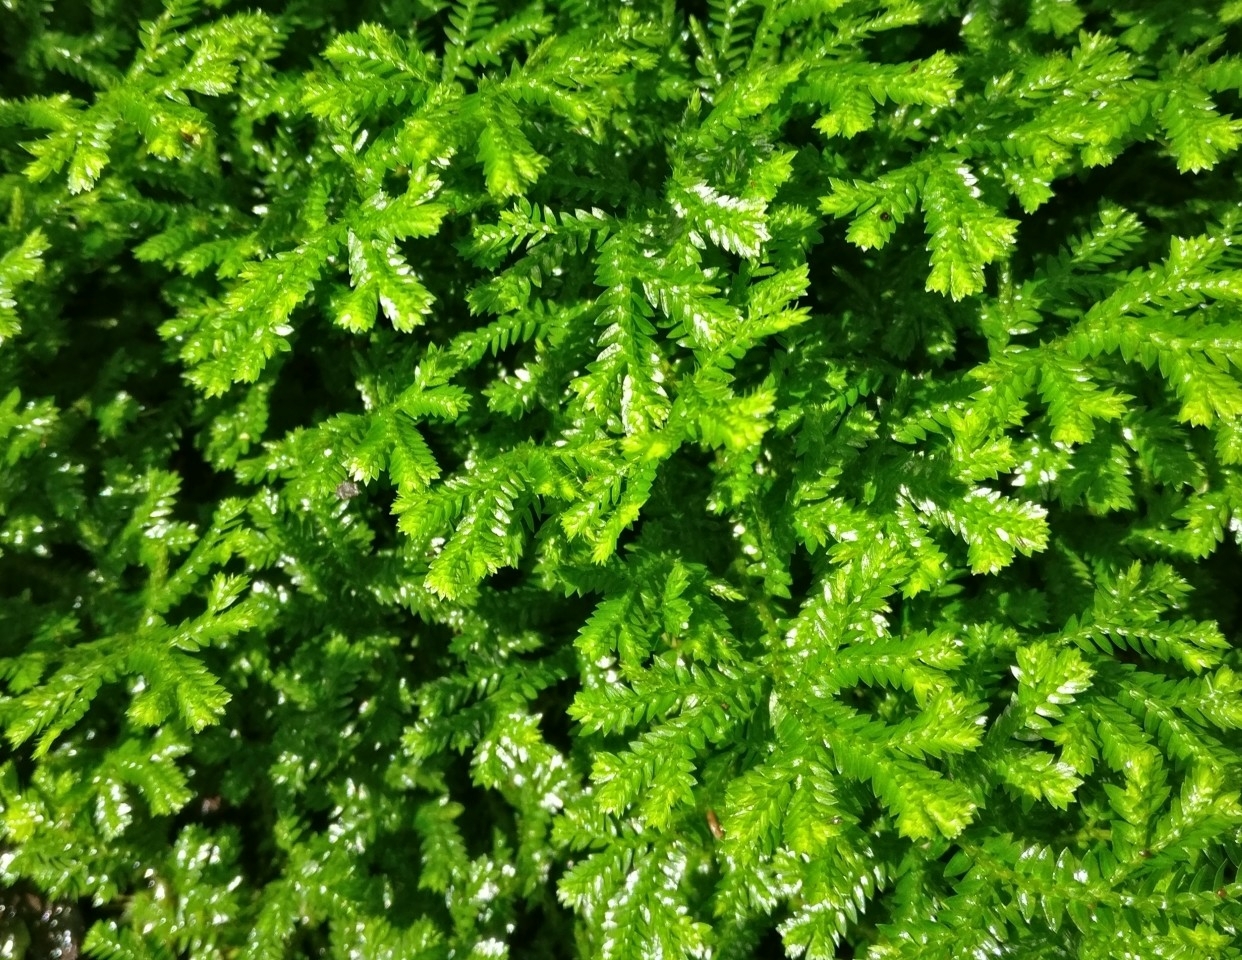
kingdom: Plantae
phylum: Tracheophyta
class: Lycopodiopsida
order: Selaginellales
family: Selaginellaceae
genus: Selaginella
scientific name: Selaginella kraussiana
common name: Krauss' spikemoss
